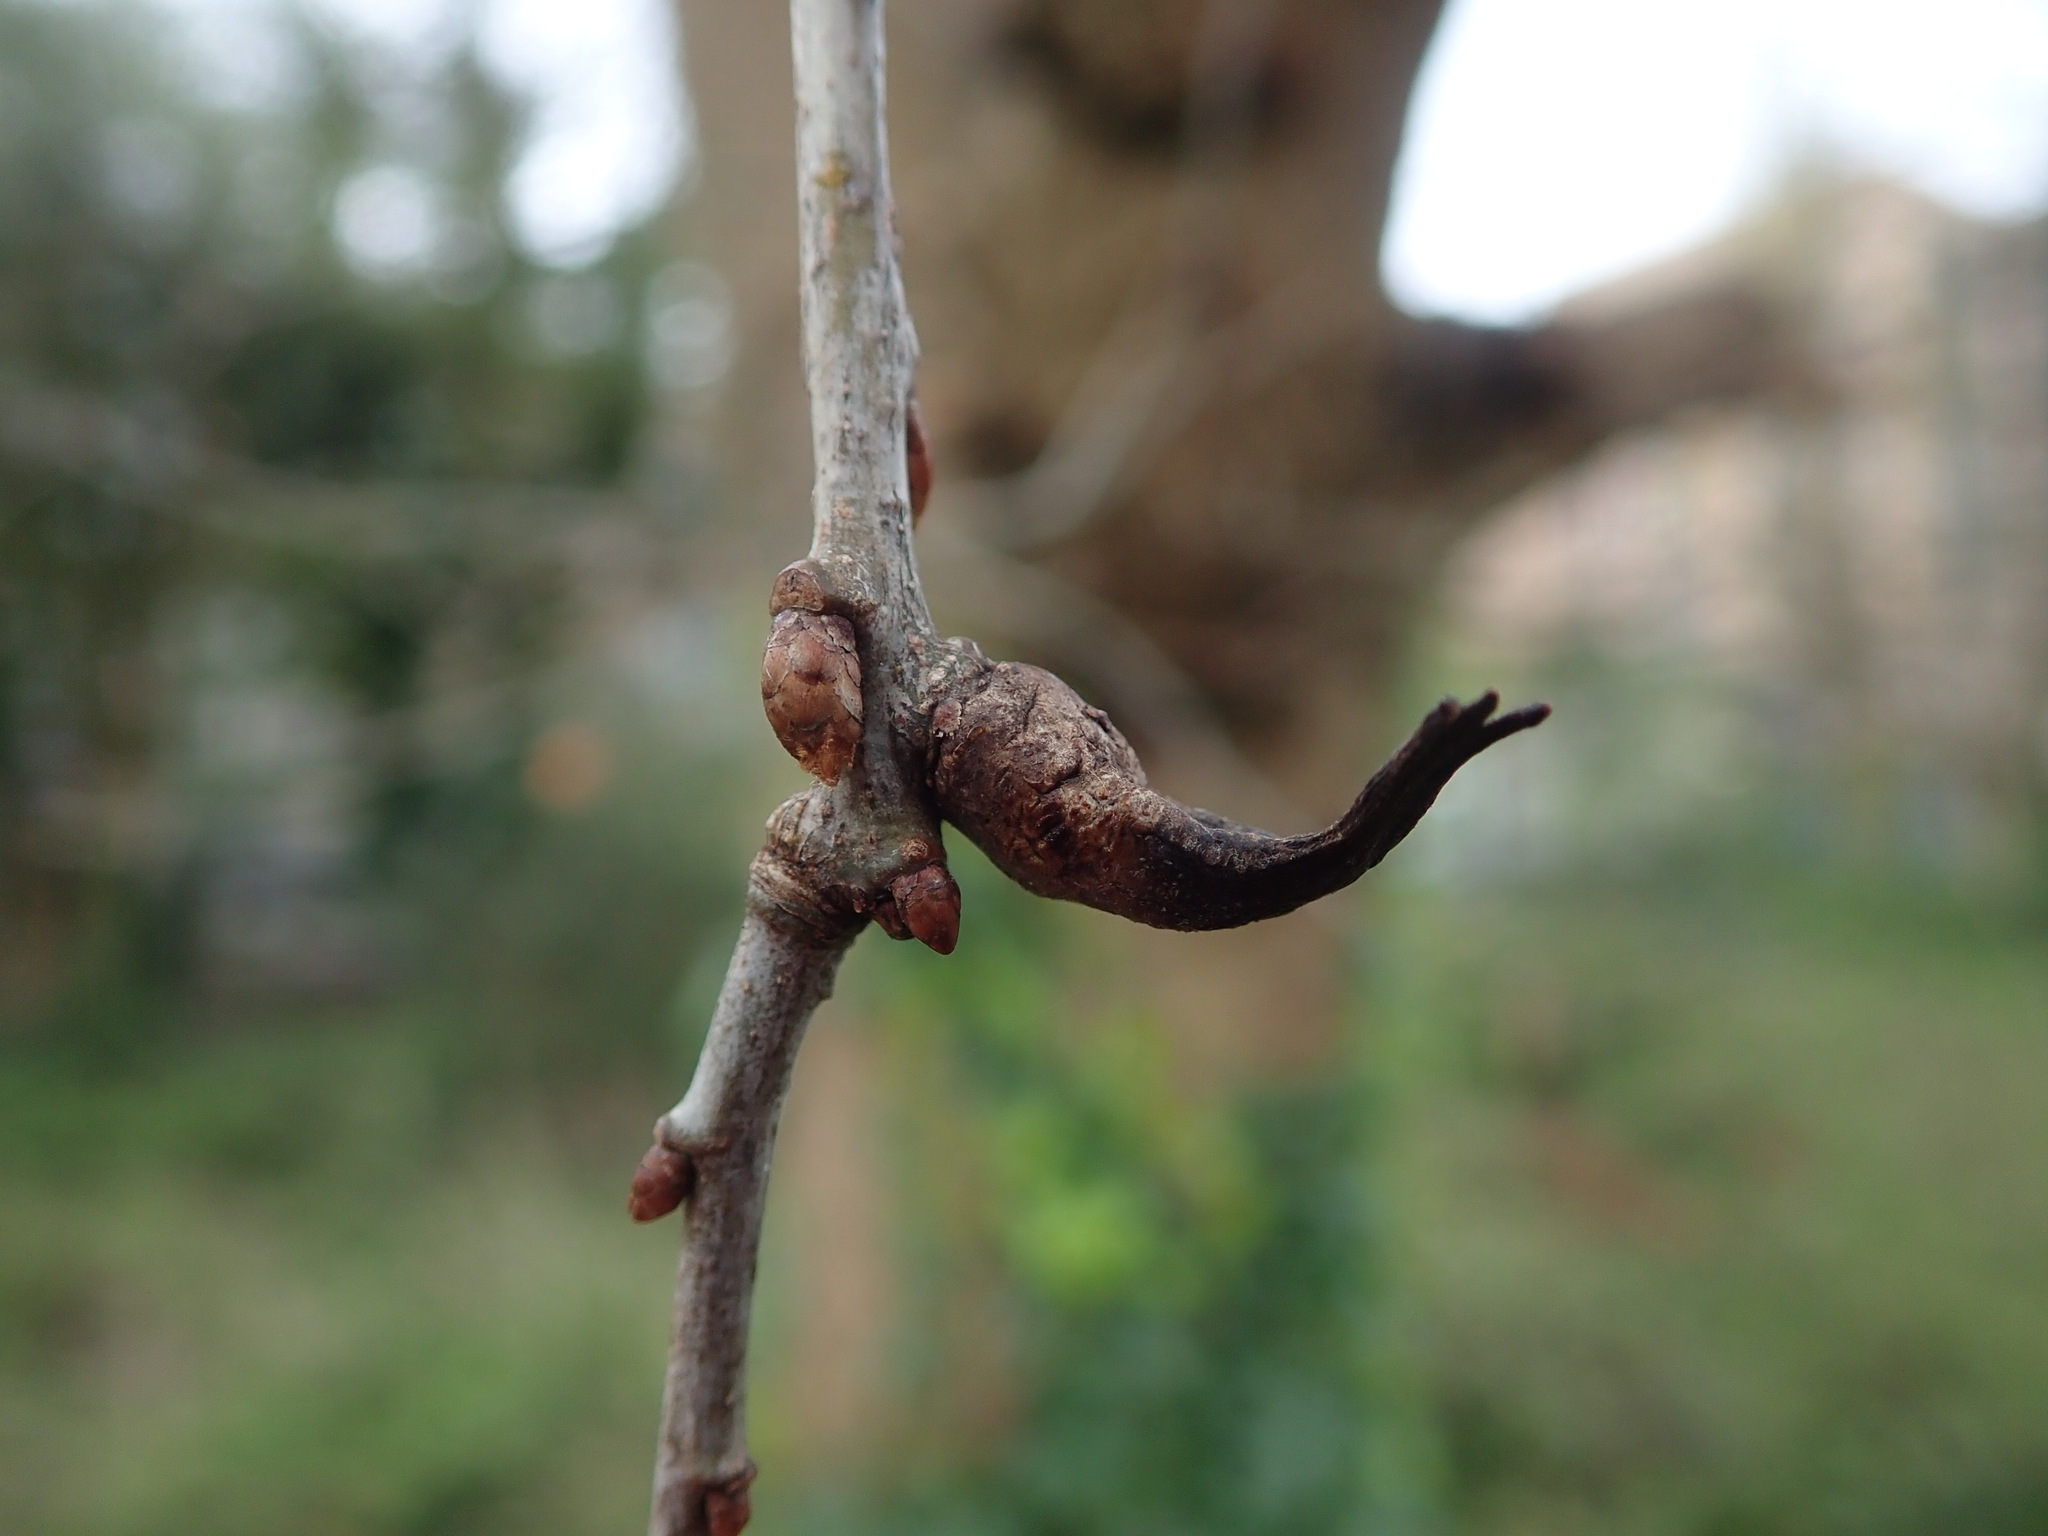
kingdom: Animalia
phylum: Arthropoda
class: Insecta
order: Hymenoptera
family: Cynipidae
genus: Andricus
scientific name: Andricus aries
